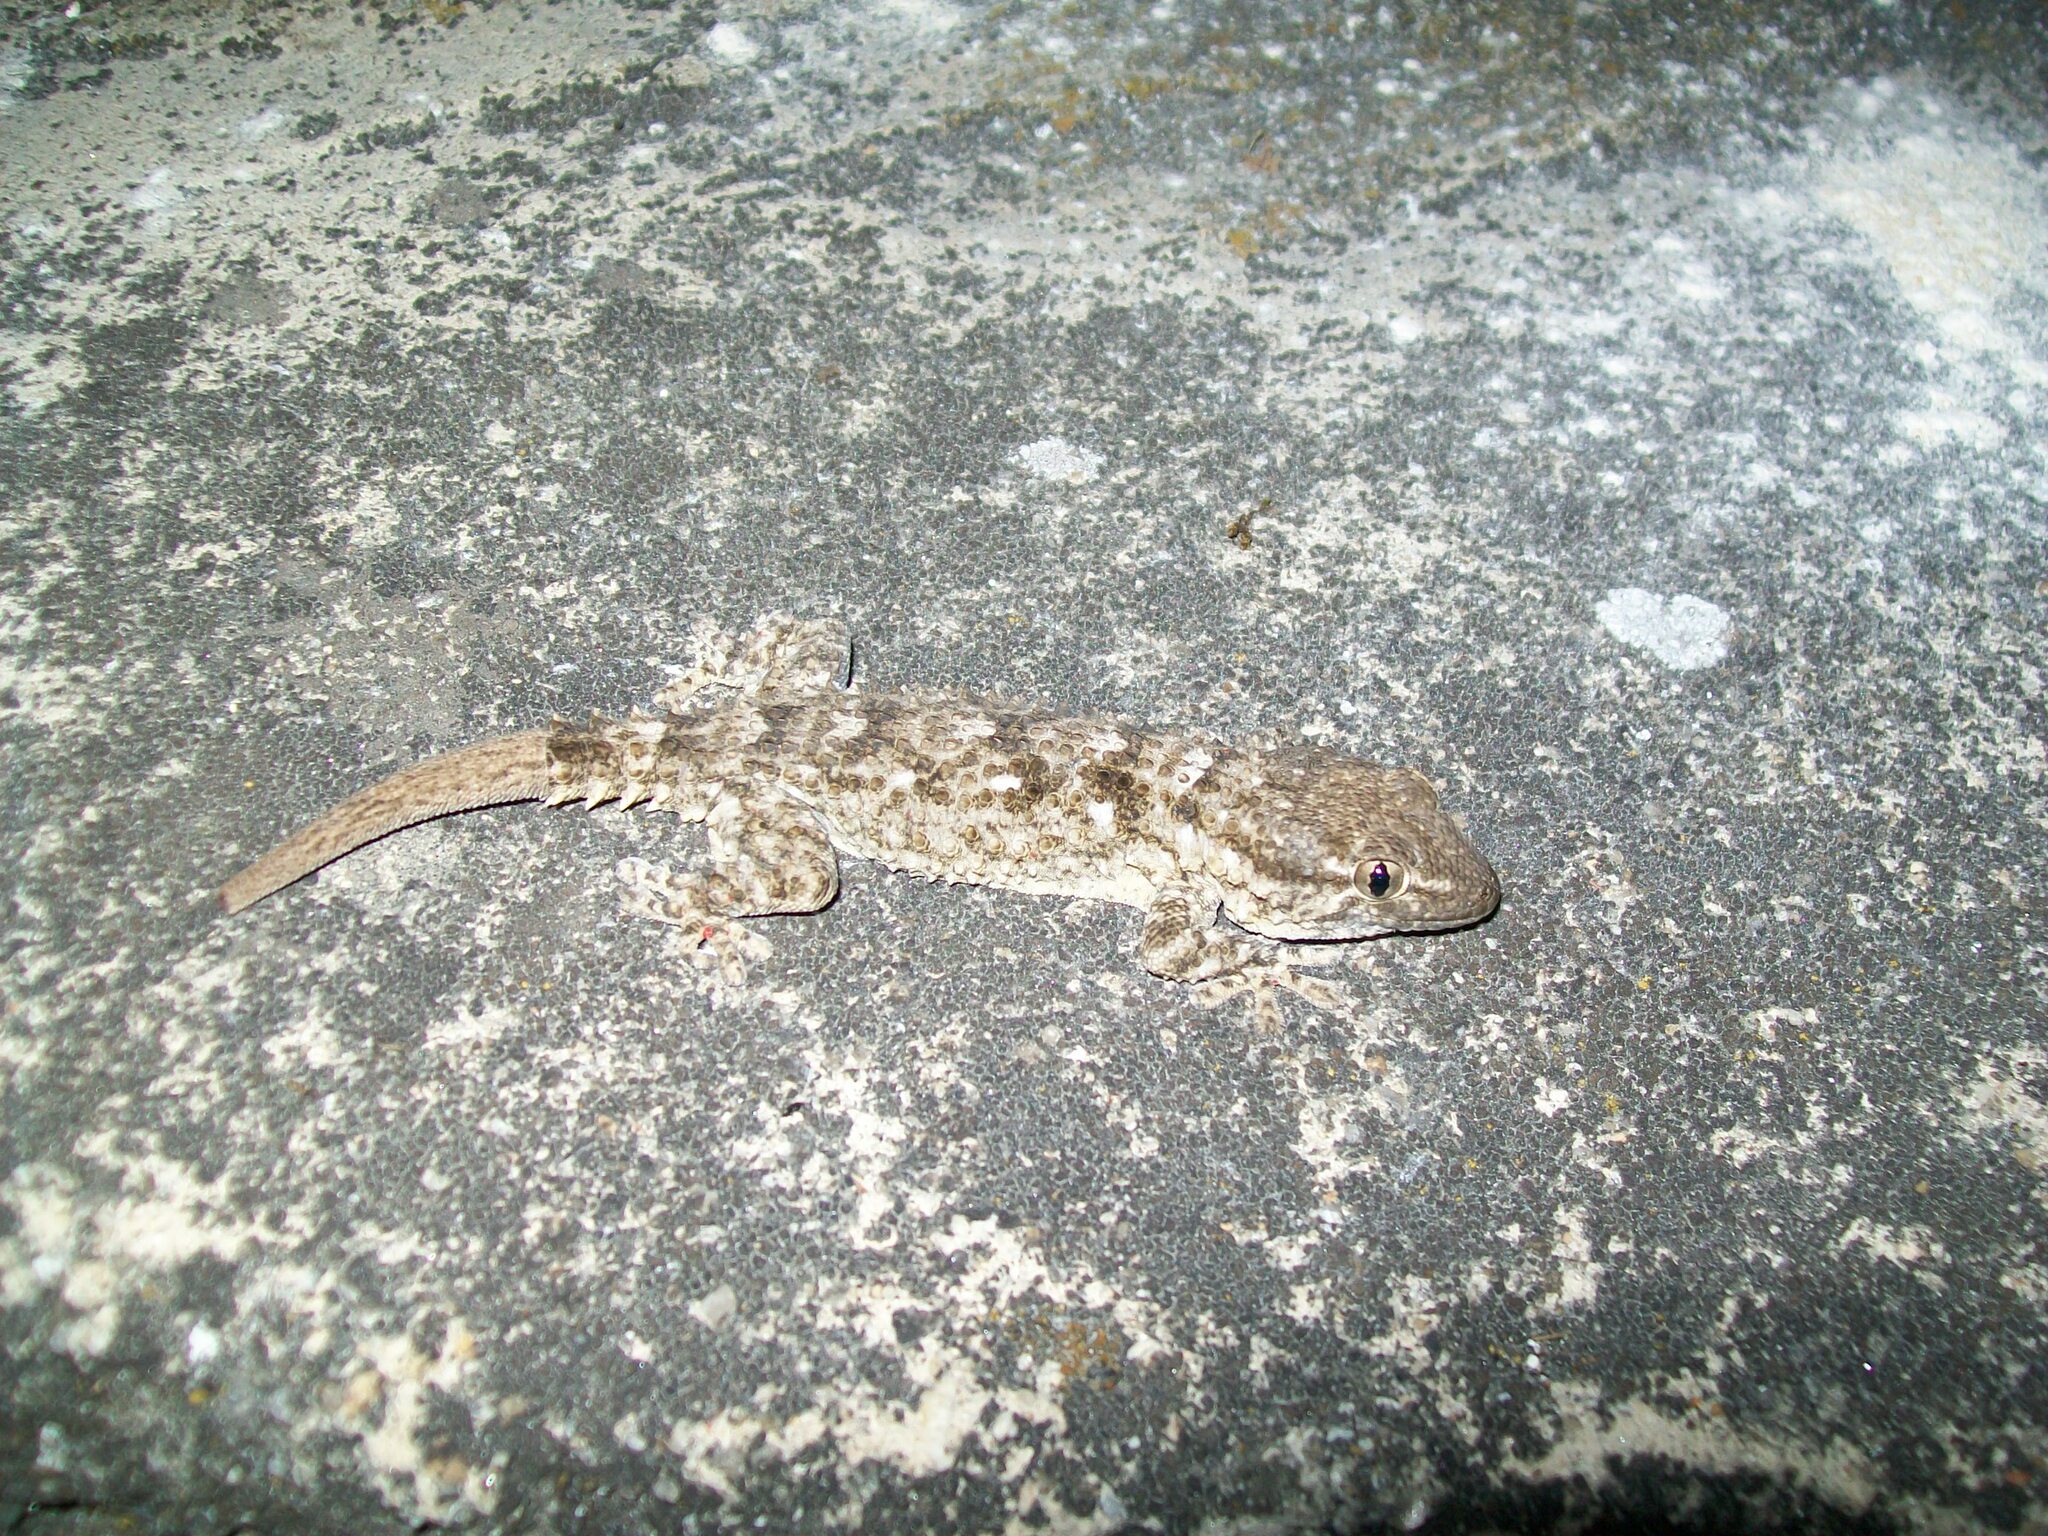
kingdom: Animalia
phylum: Chordata
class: Squamata
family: Phyllodactylidae
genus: Tarentola
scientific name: Tarentola mauritanica
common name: Moorish gecko
